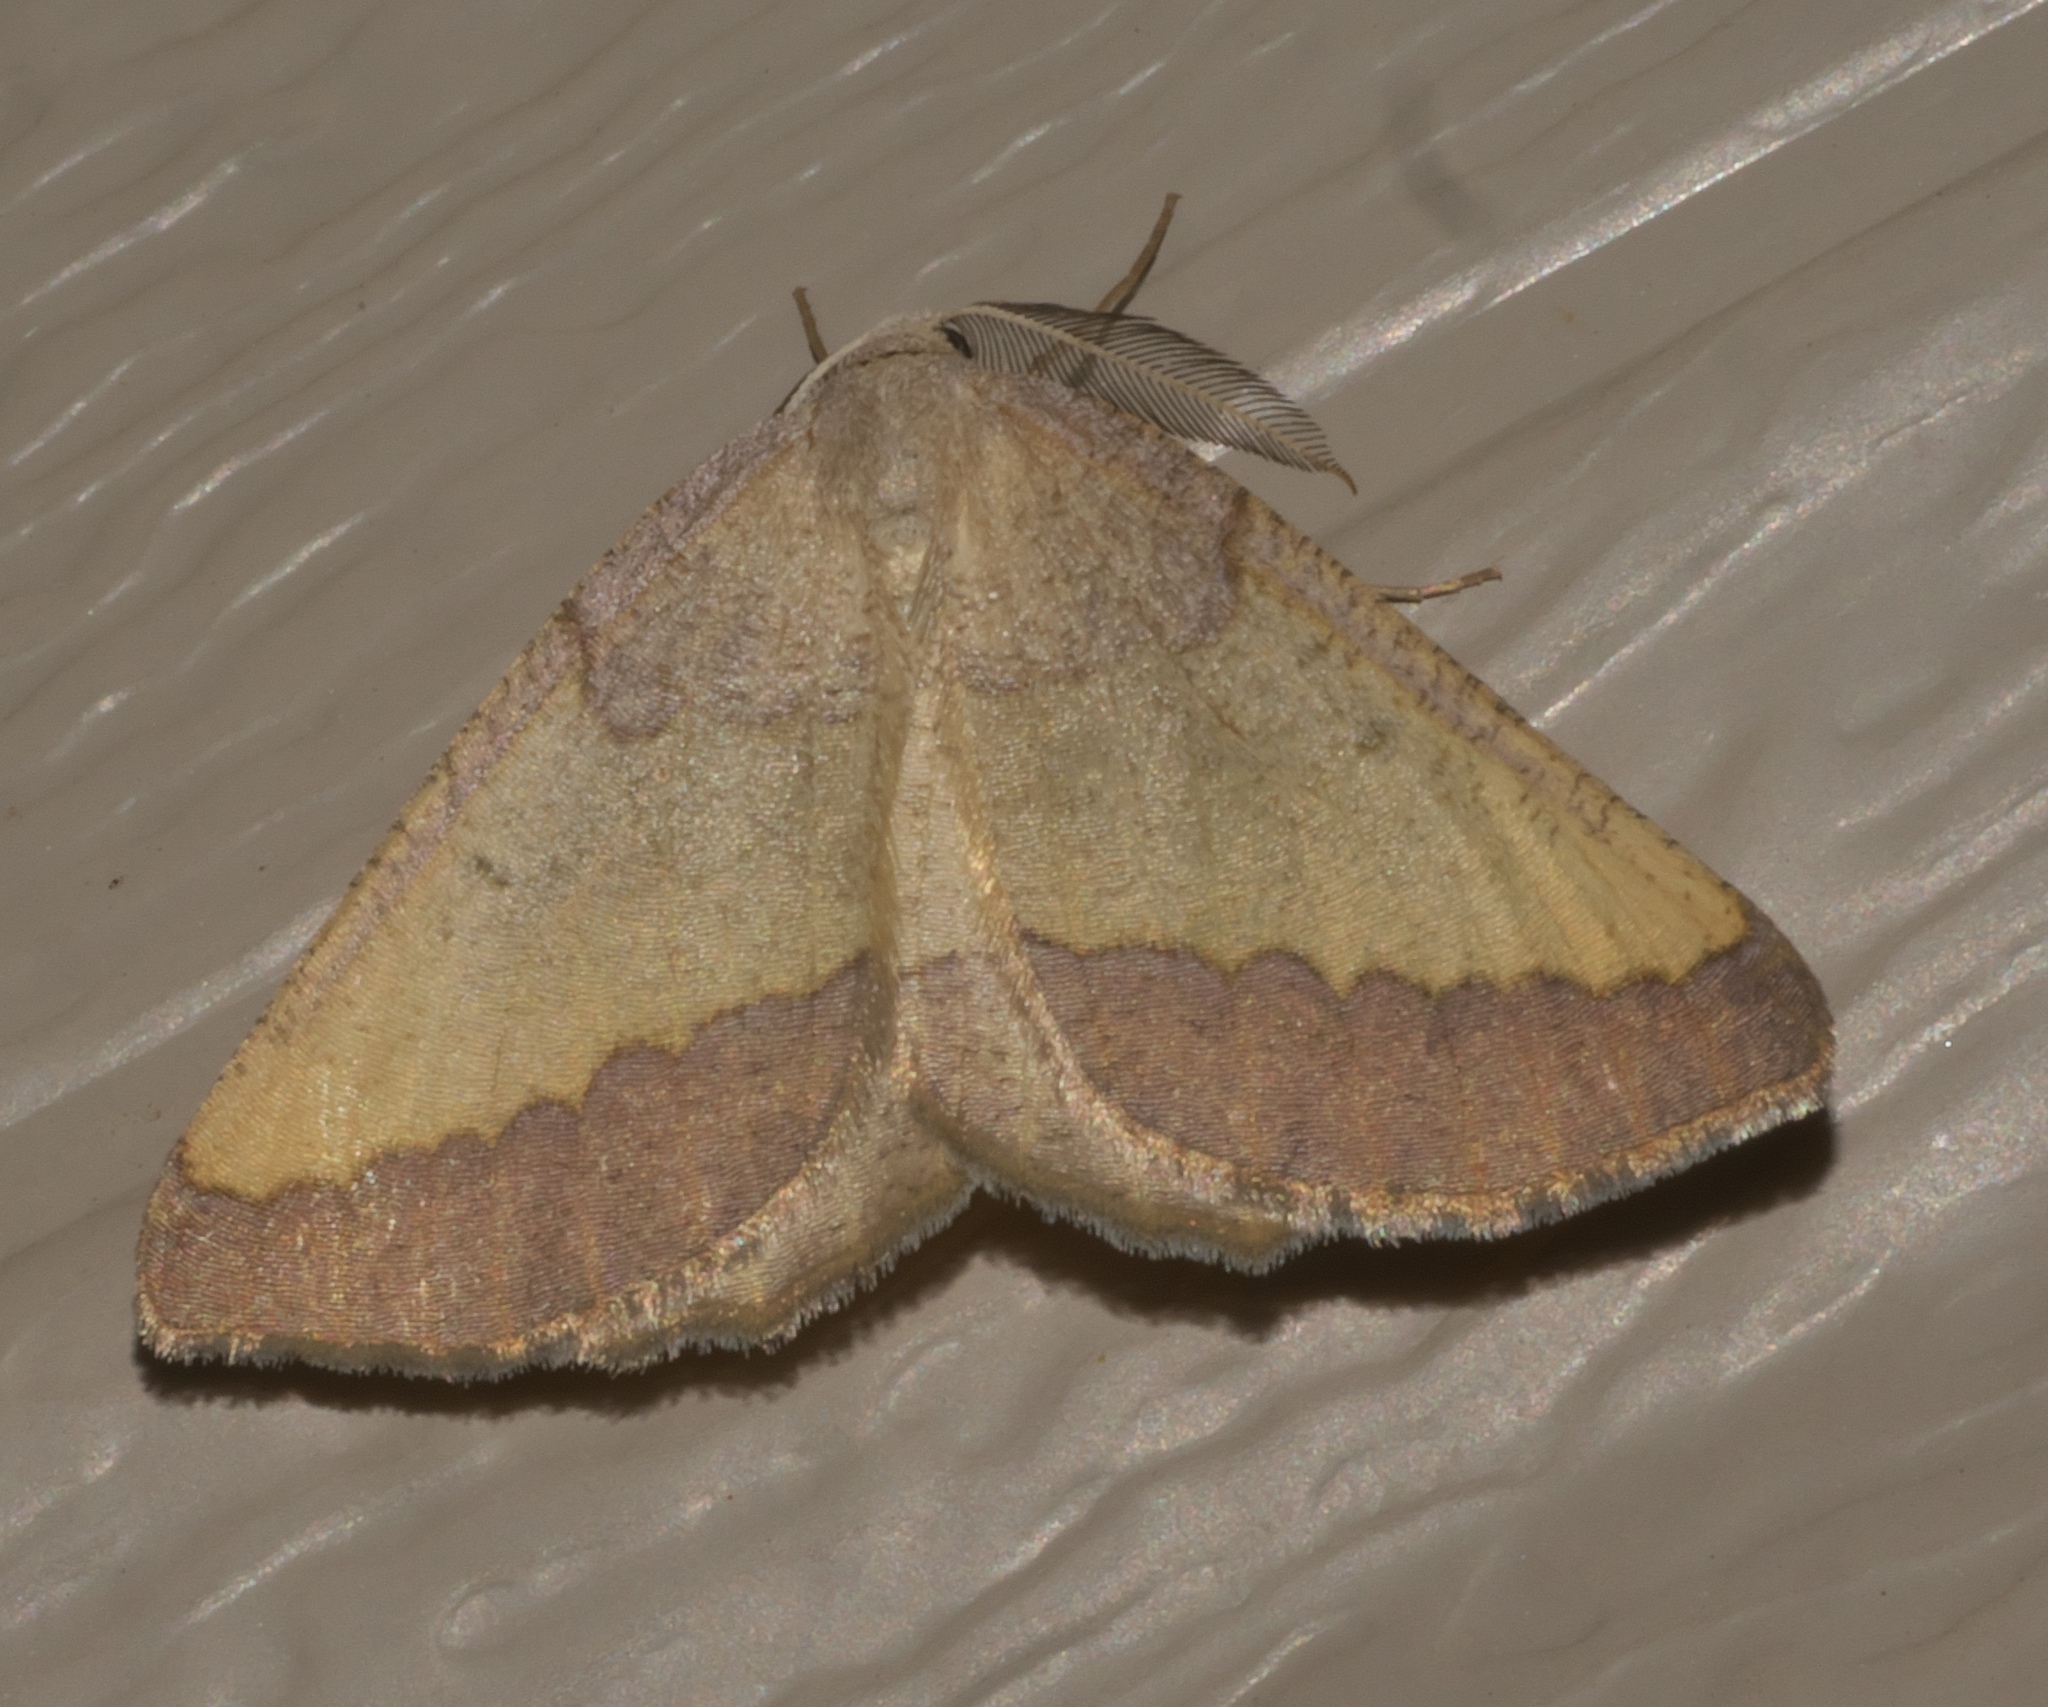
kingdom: Animalia
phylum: Arthropoda
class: Insecta
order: Lepidoptera
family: Geometridae
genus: Lychnosea
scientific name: Lychnosea helveolaria
